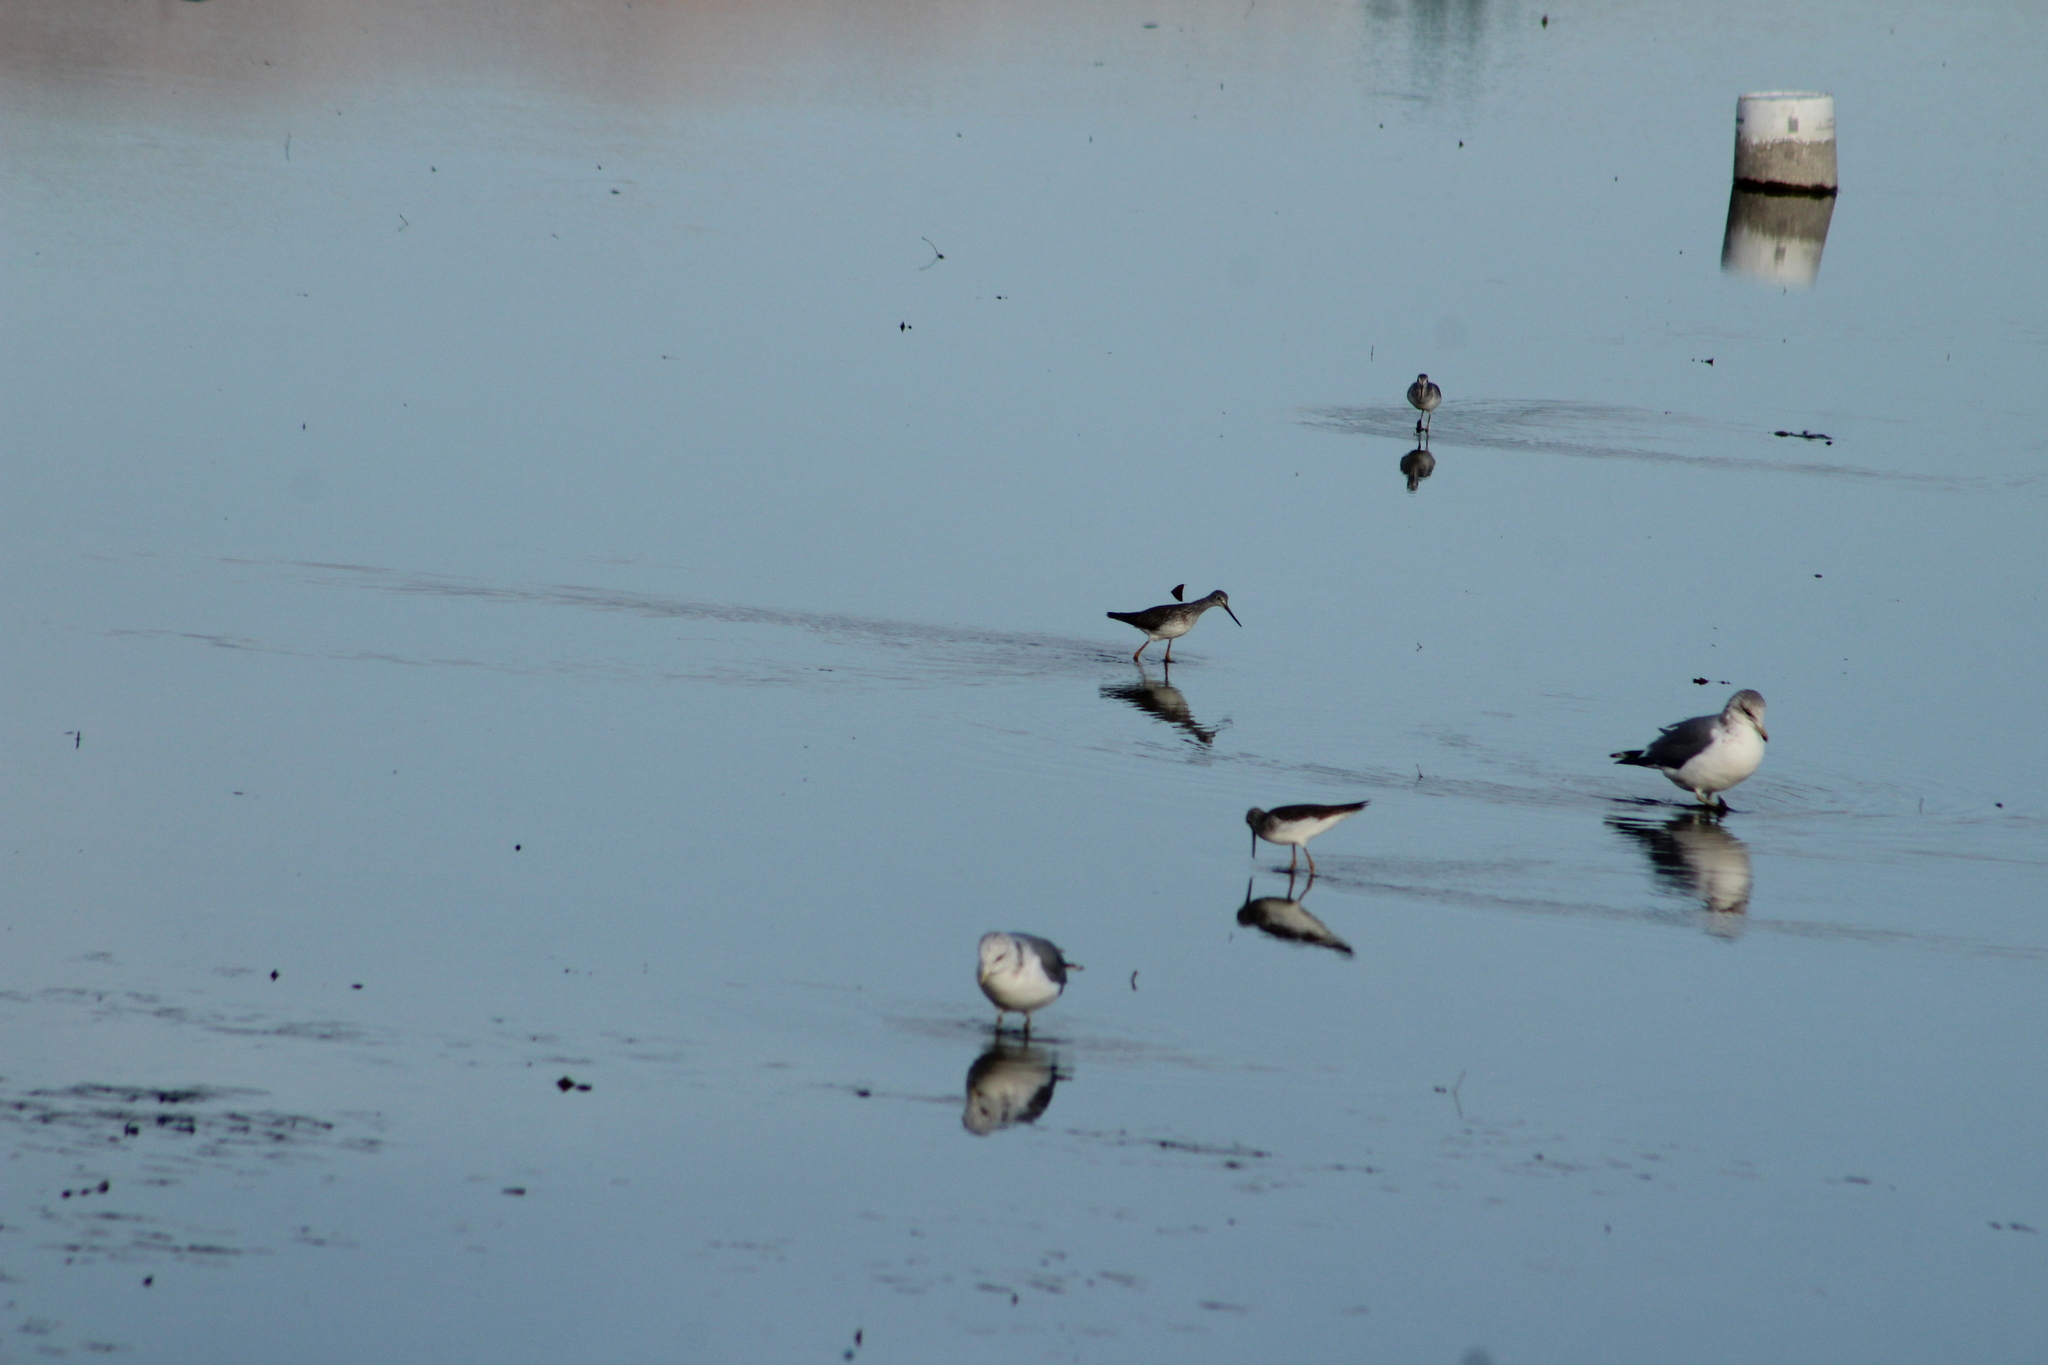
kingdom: Animalia
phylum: Chordata
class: Aves
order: Charadriiformes
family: Scolopacidae
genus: Tringa
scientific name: Tringa melanoleuca
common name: Greater yellowlegs
